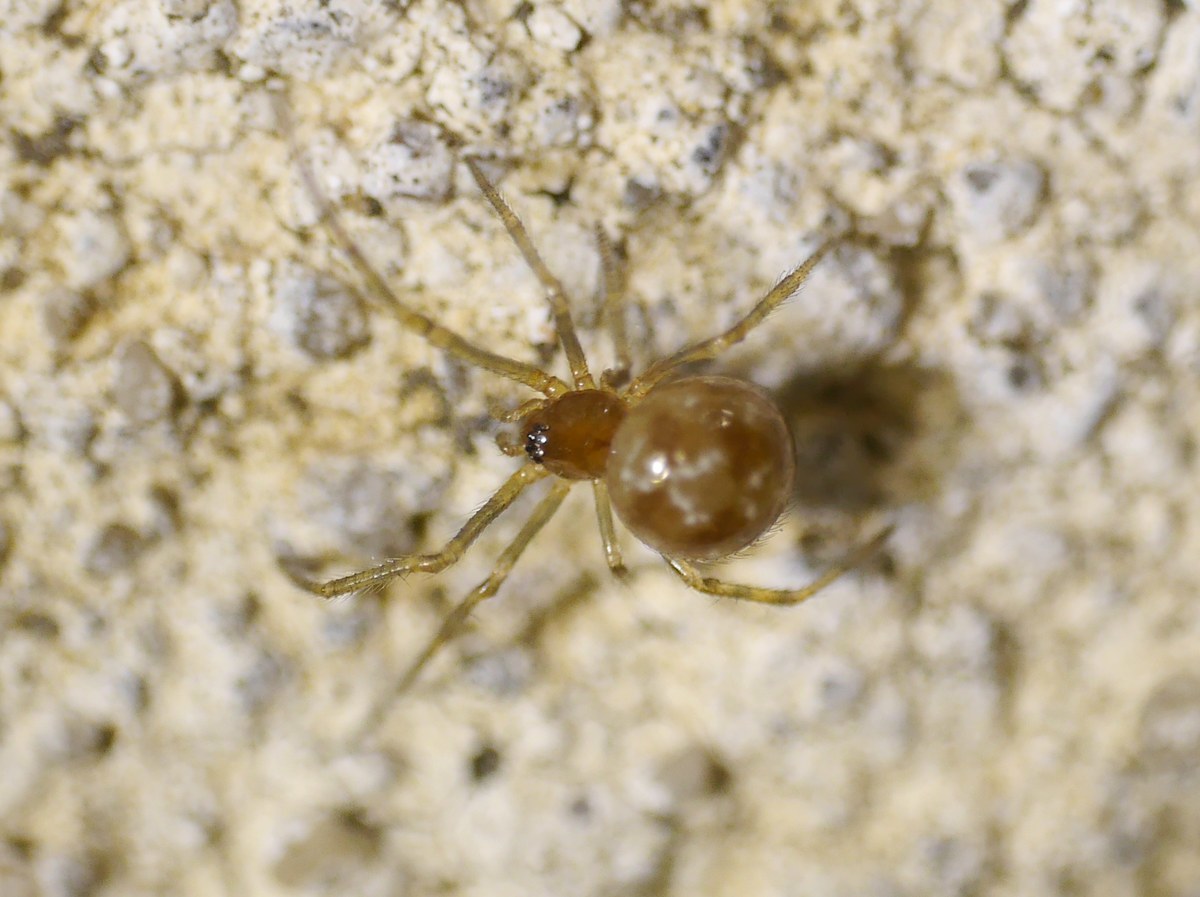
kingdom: Animalia
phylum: Arthropoda
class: Arachnida
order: Araneae
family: Theridiidae
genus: Steatoda
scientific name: Steatoda triangulosa
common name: Triangulate bud spider
